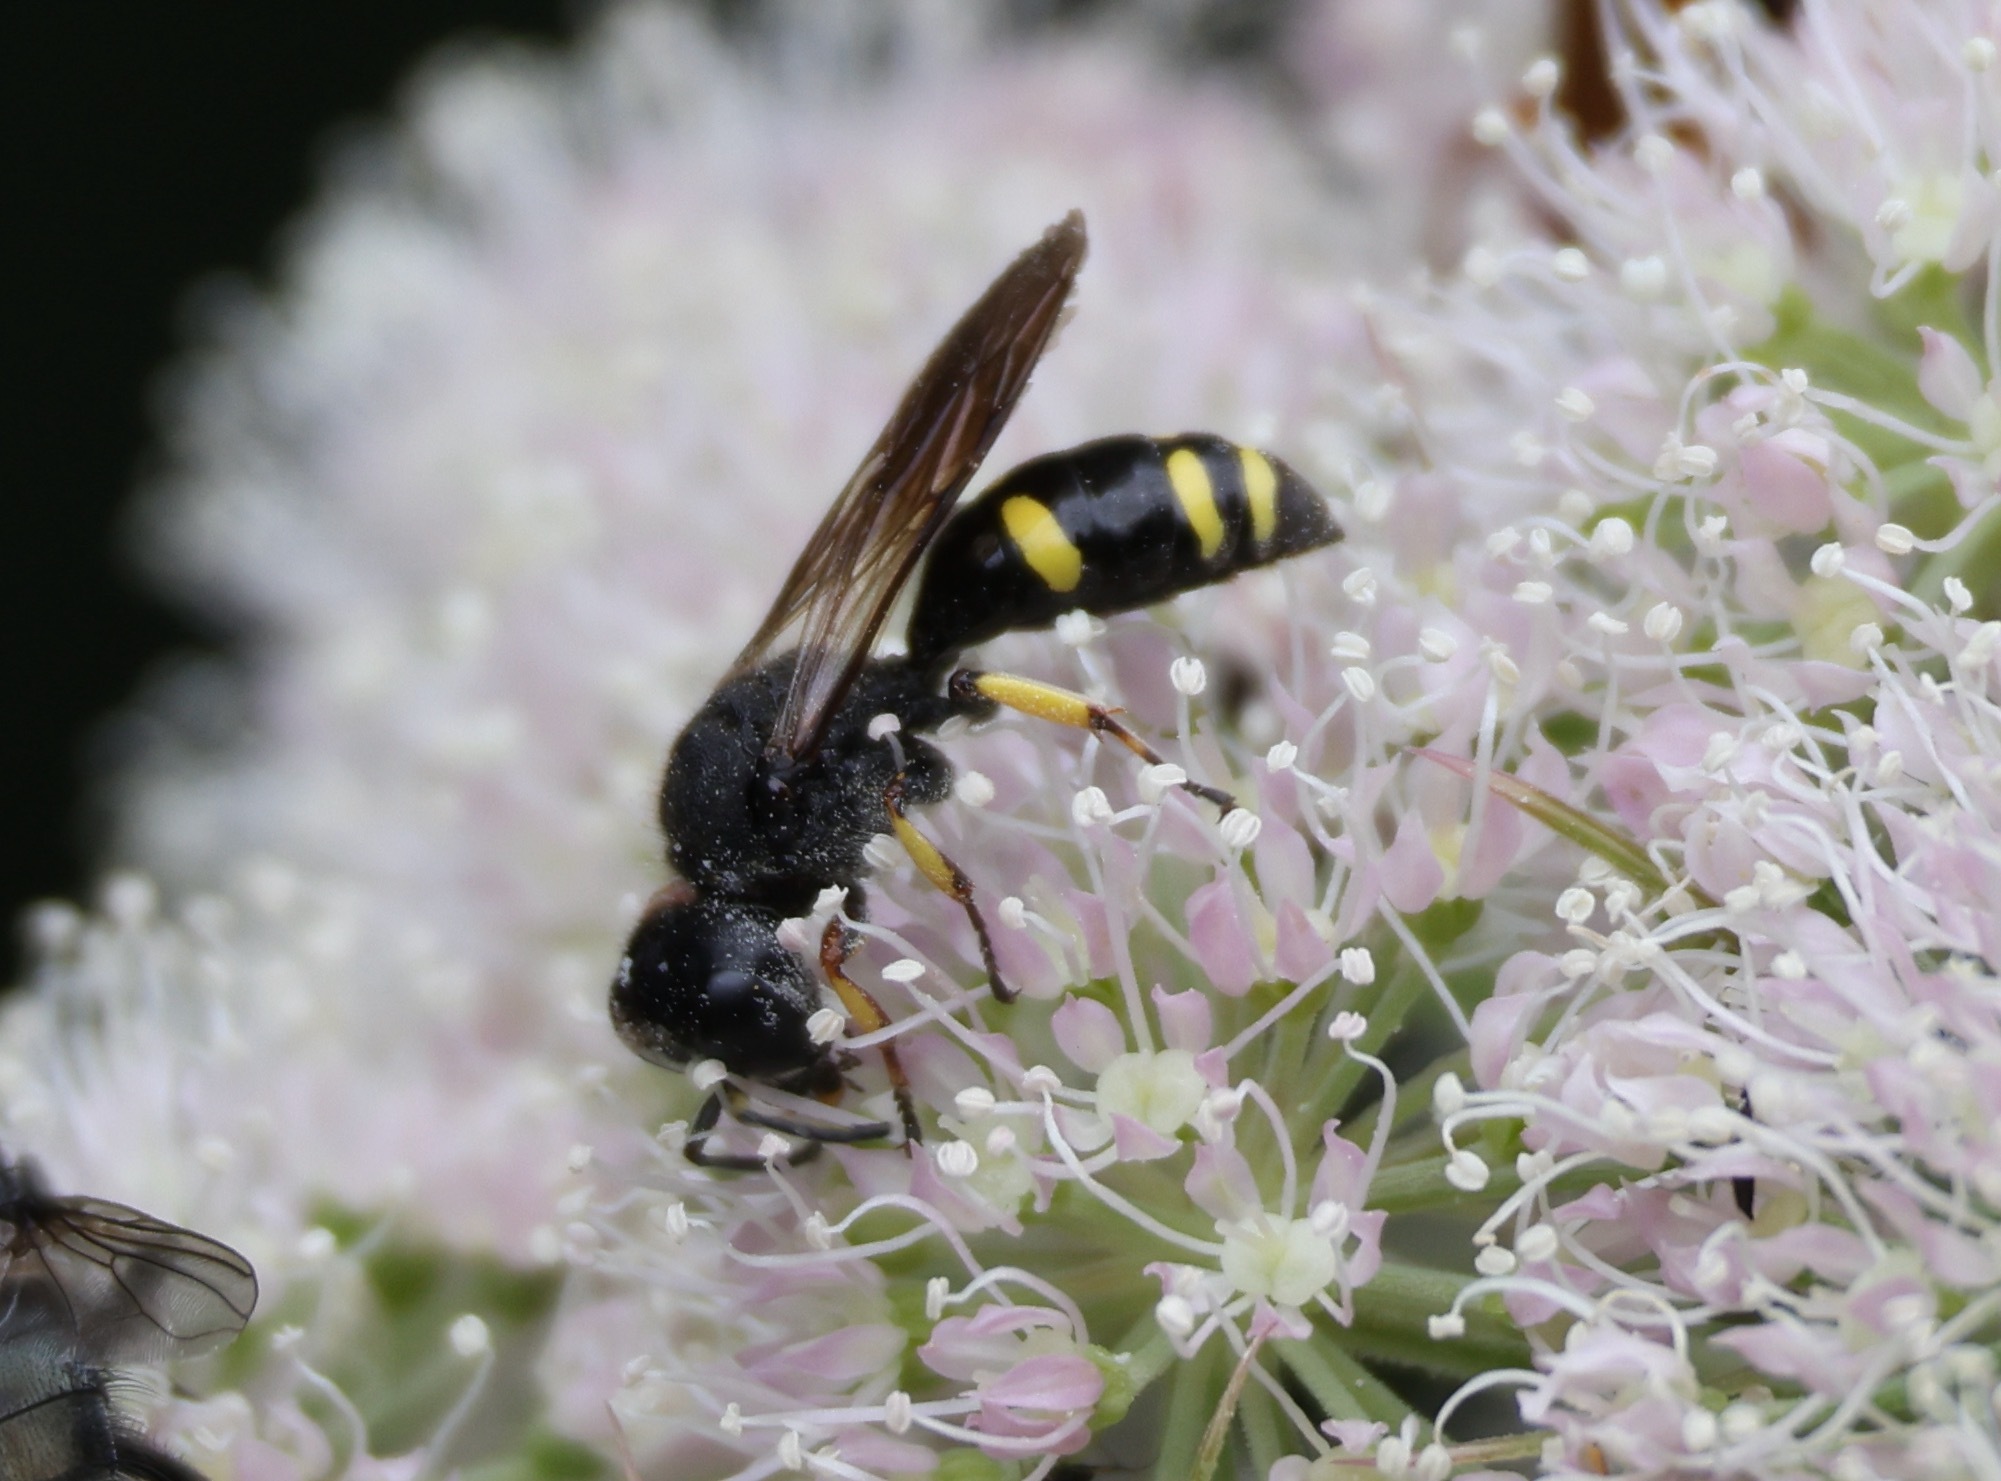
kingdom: Animalia
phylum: Arthropoda
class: Insecta
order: Hymenoptera
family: Crabronidae
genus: Ectemnius
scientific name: Ectemnius continuus
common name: Common ectemnius
